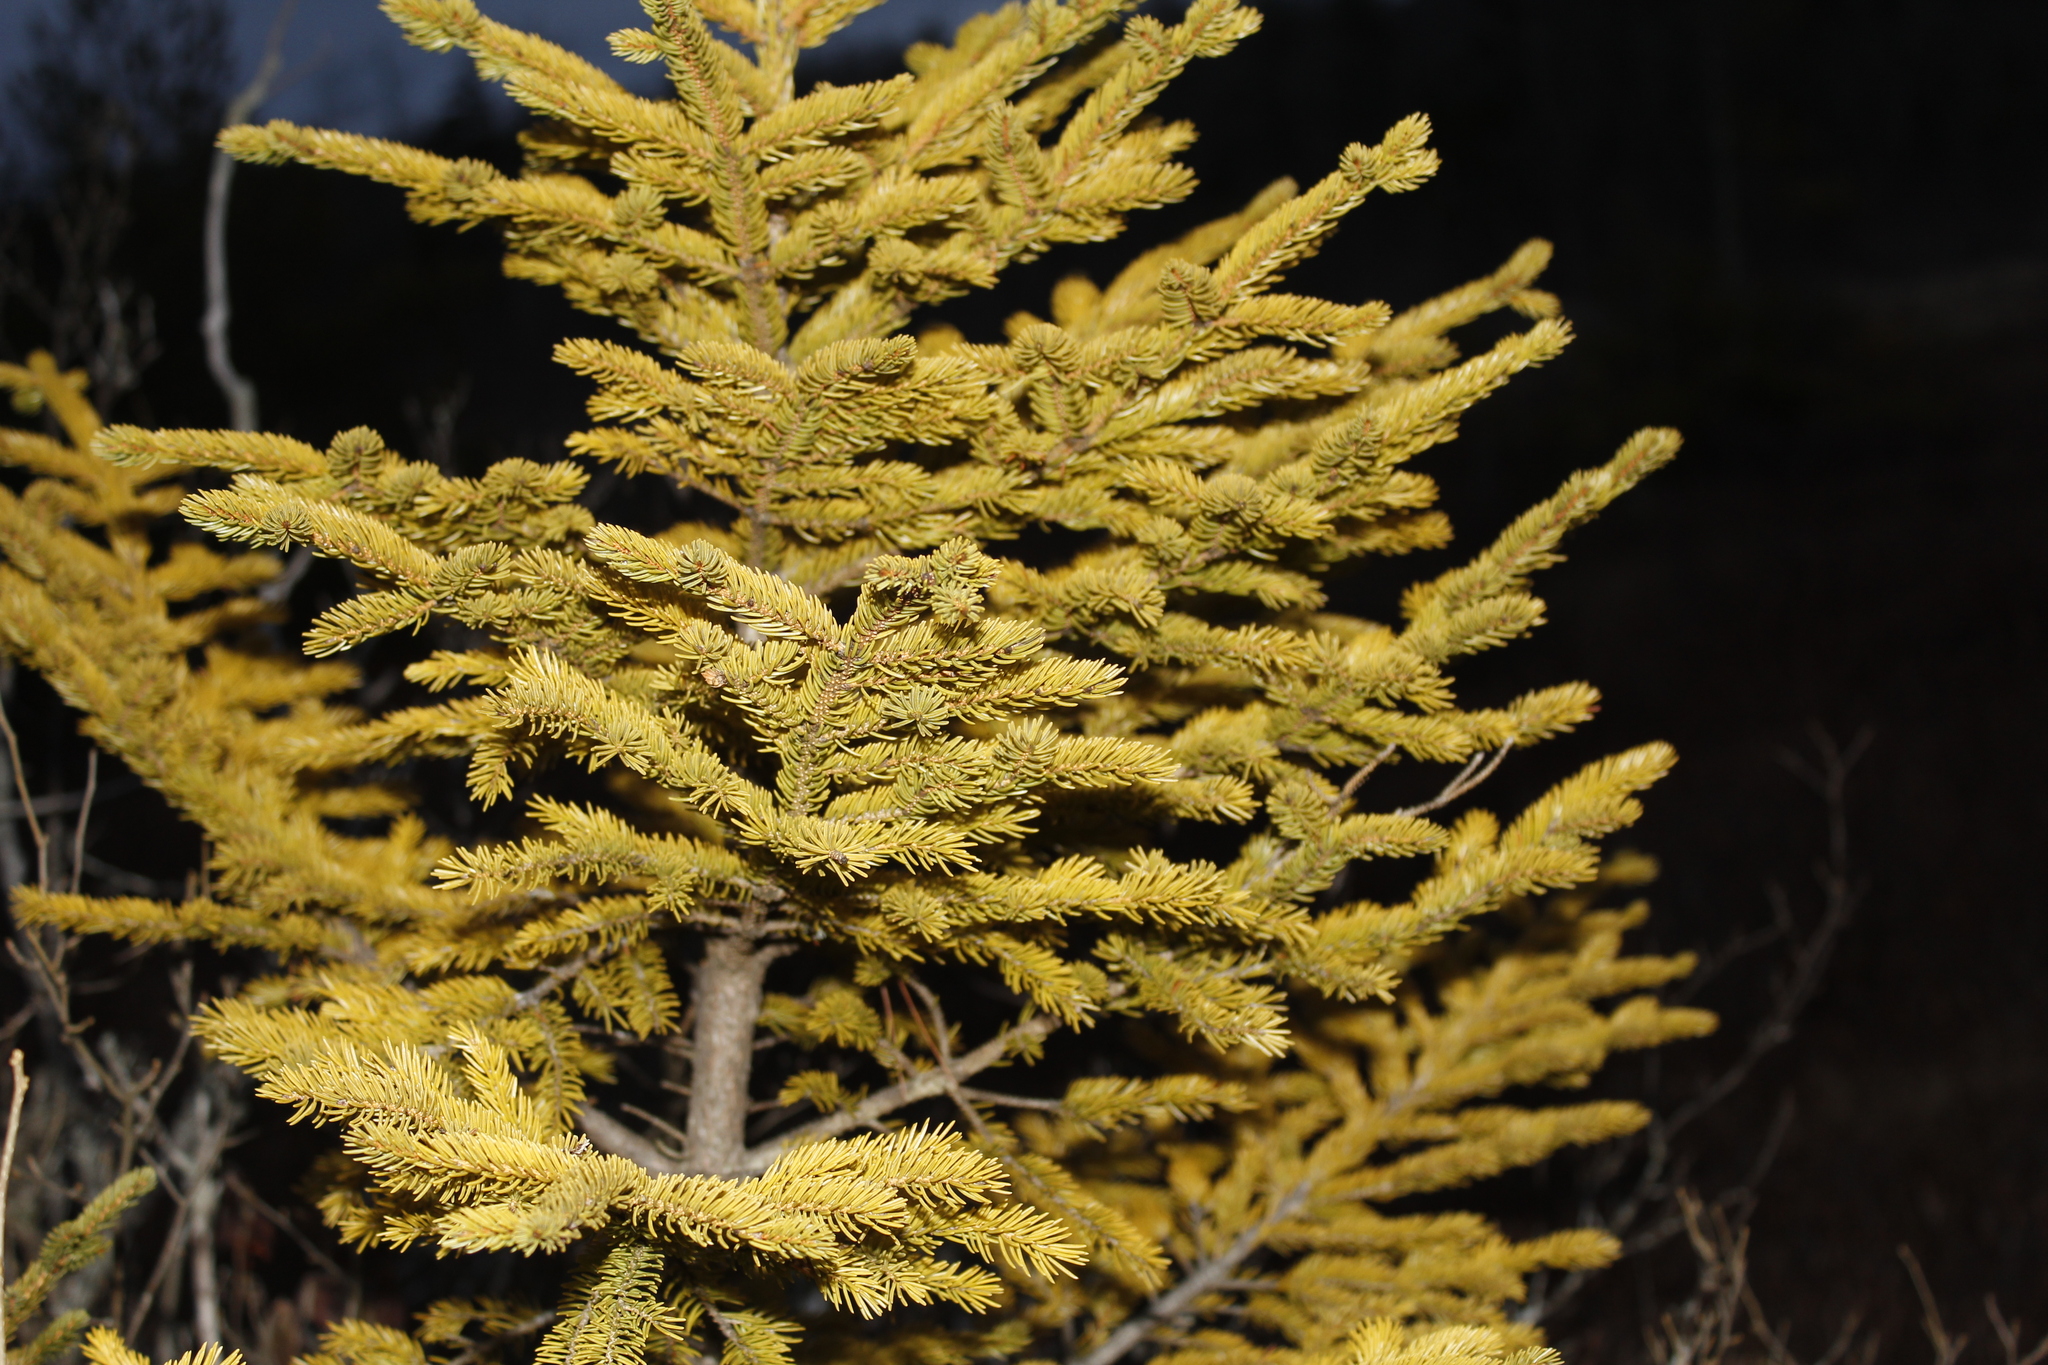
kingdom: Plantae
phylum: Tracheophyta
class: Pinopsida
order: Pinales
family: Pinaceae
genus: Picea
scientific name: Picea mariana
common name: Black spruce
